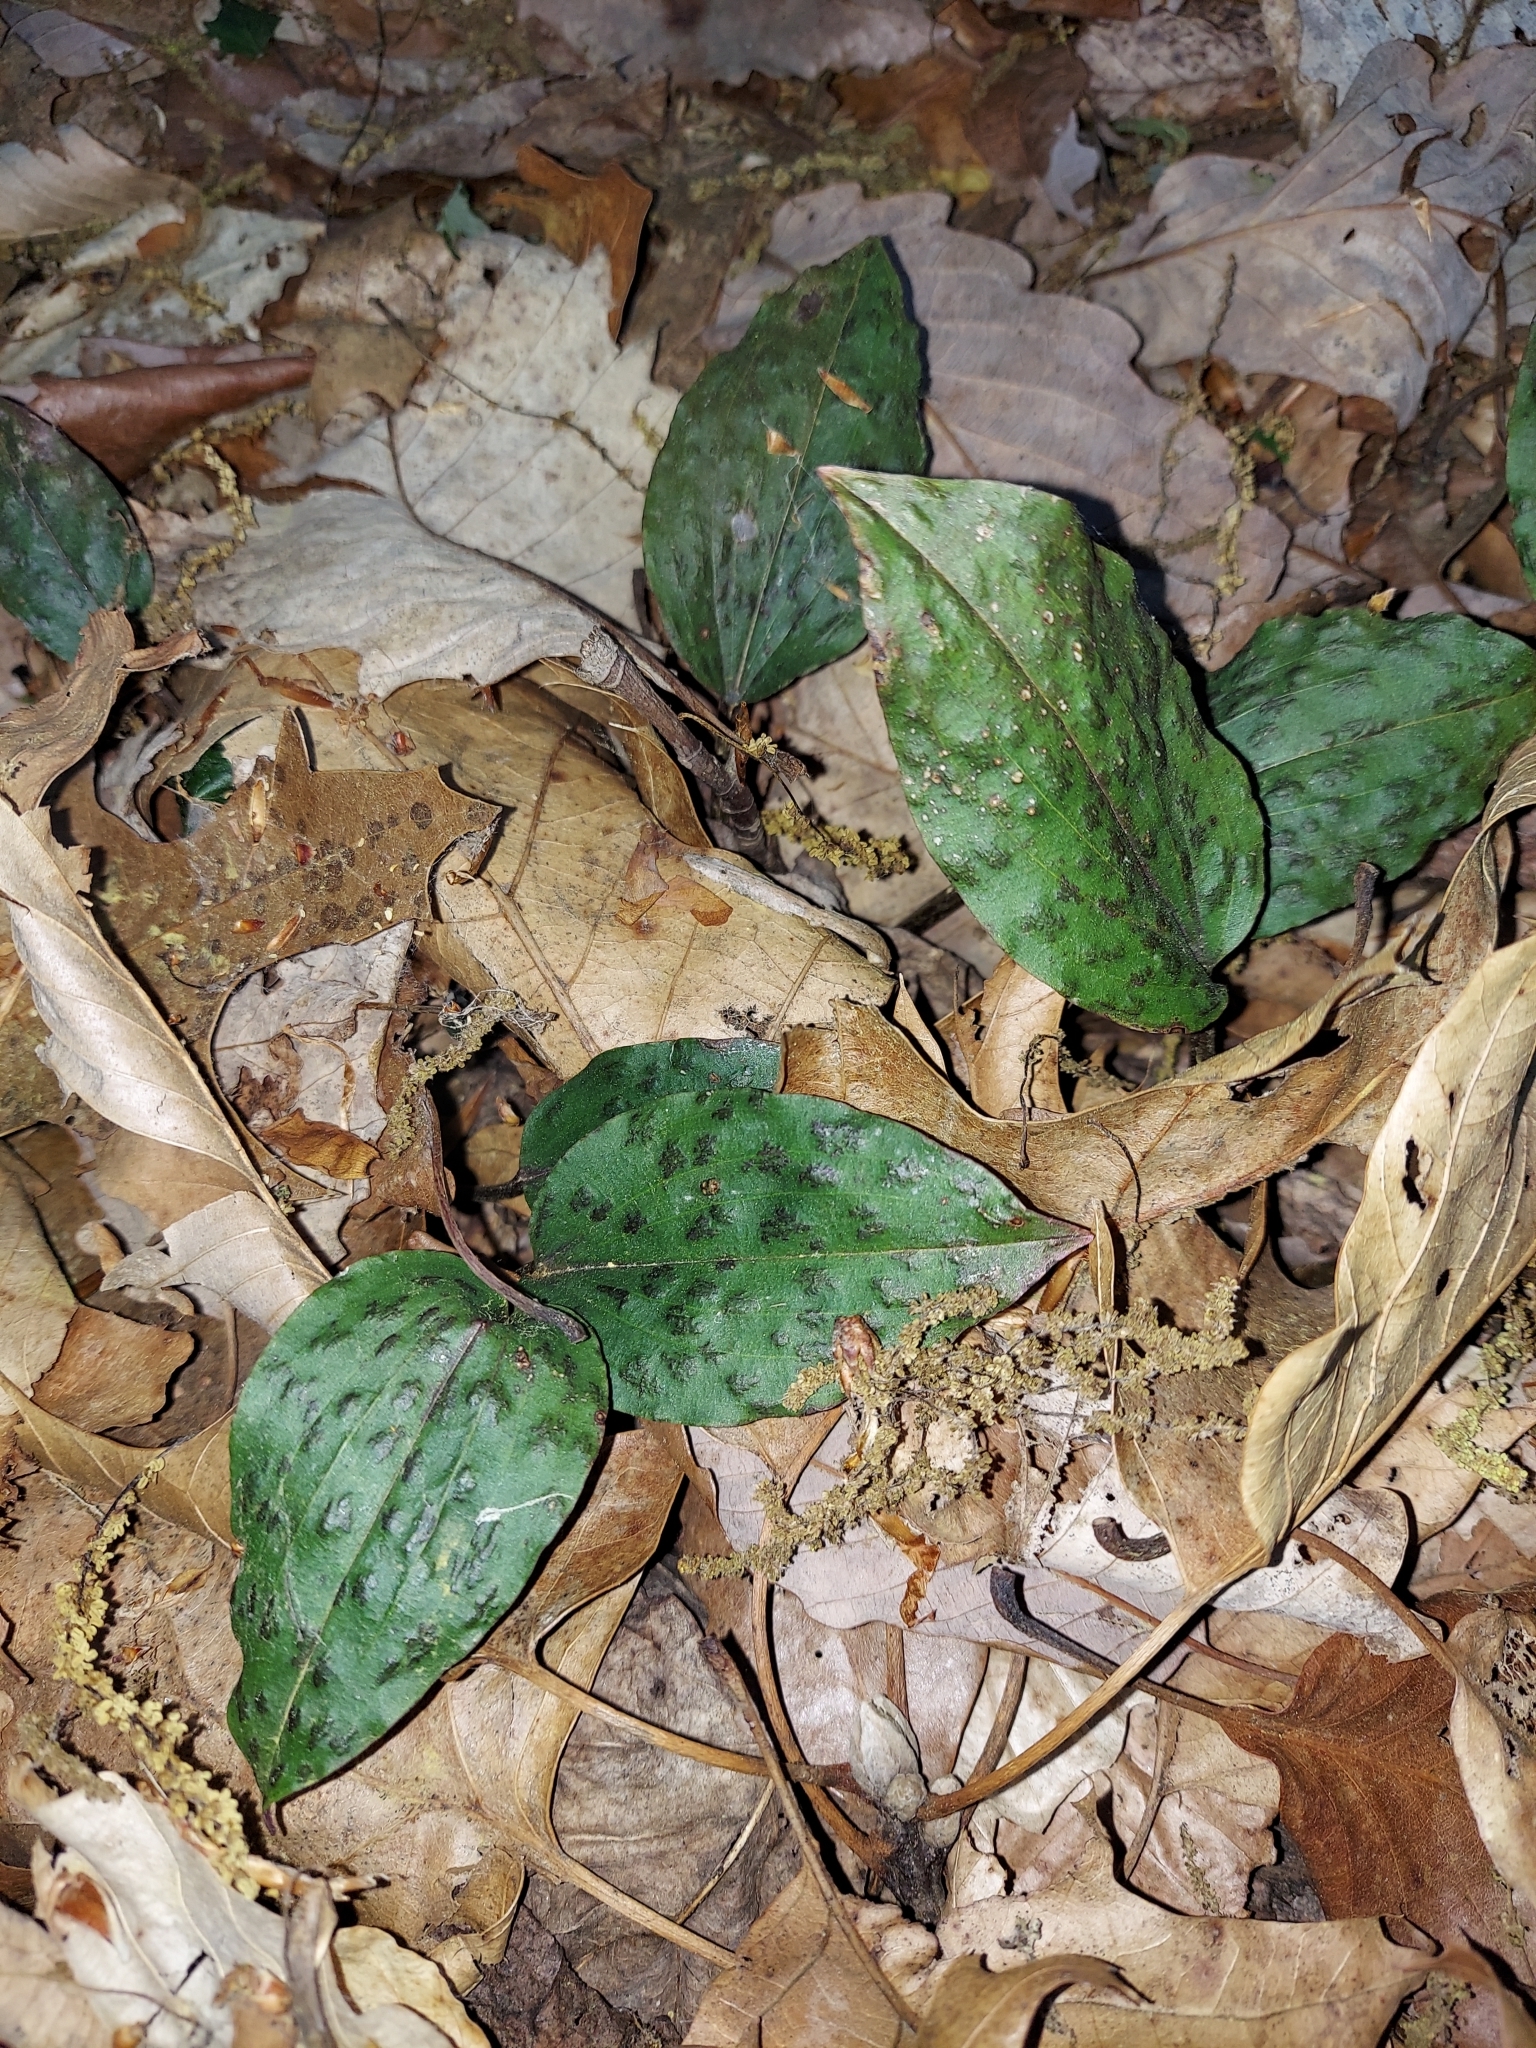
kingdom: Plantae
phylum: Tracheophyta
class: Liliopsida
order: Asparagales
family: Orchidaceae
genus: Tipularia
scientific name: Tipularia discolor
